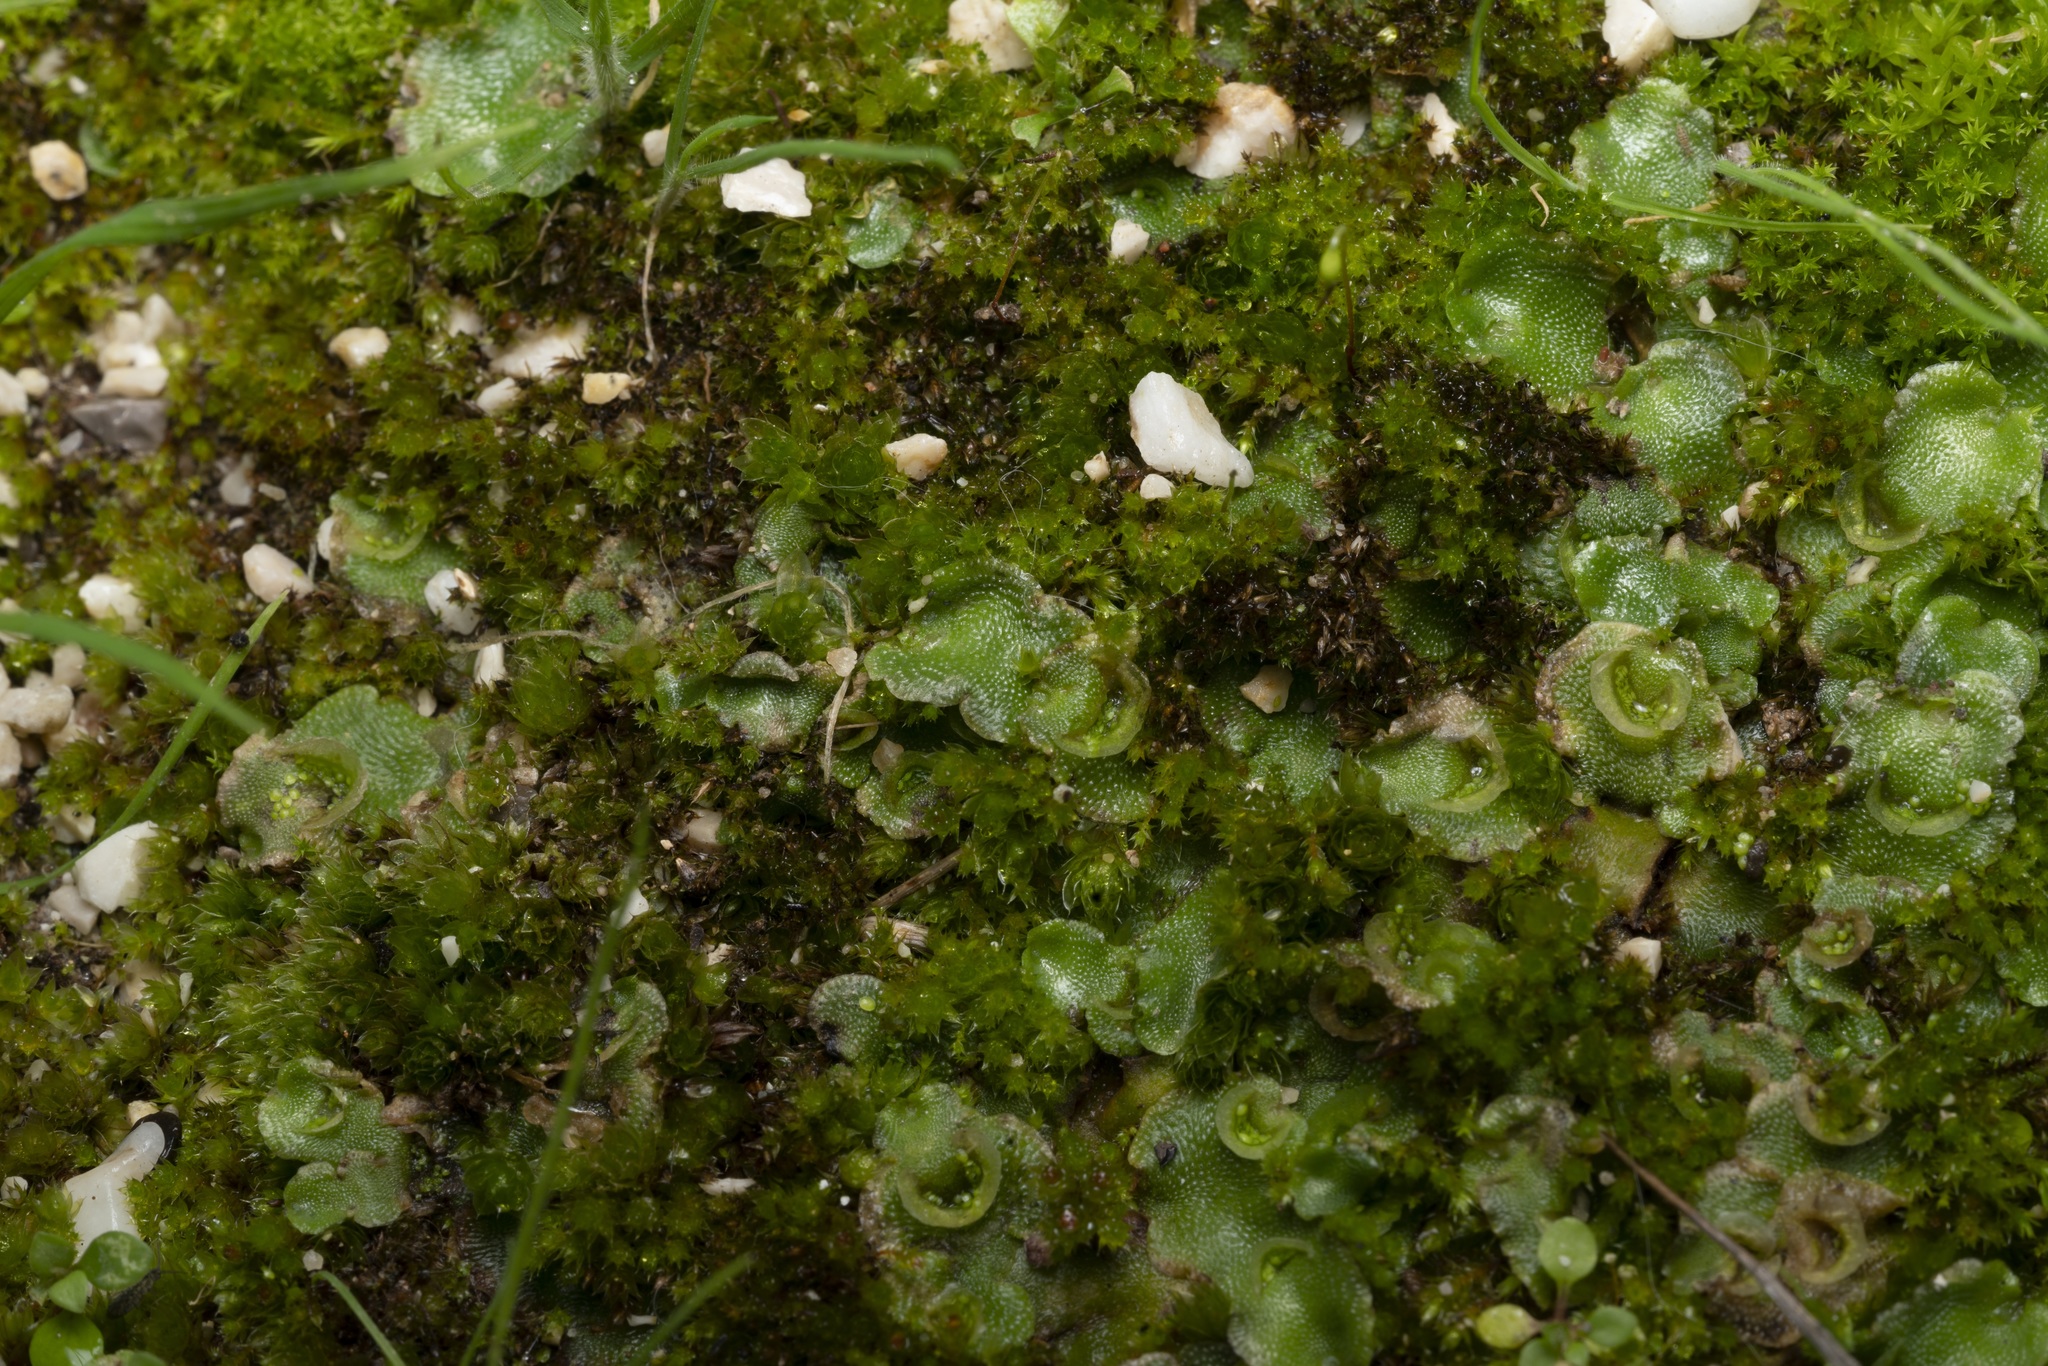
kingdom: Plantae
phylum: Marchantiophyta
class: Marchantiopsida
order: Lunulariales
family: Lunulariaceae
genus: Lunularia
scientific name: Lunularia cruciata
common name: Crescent-cup liverwort
